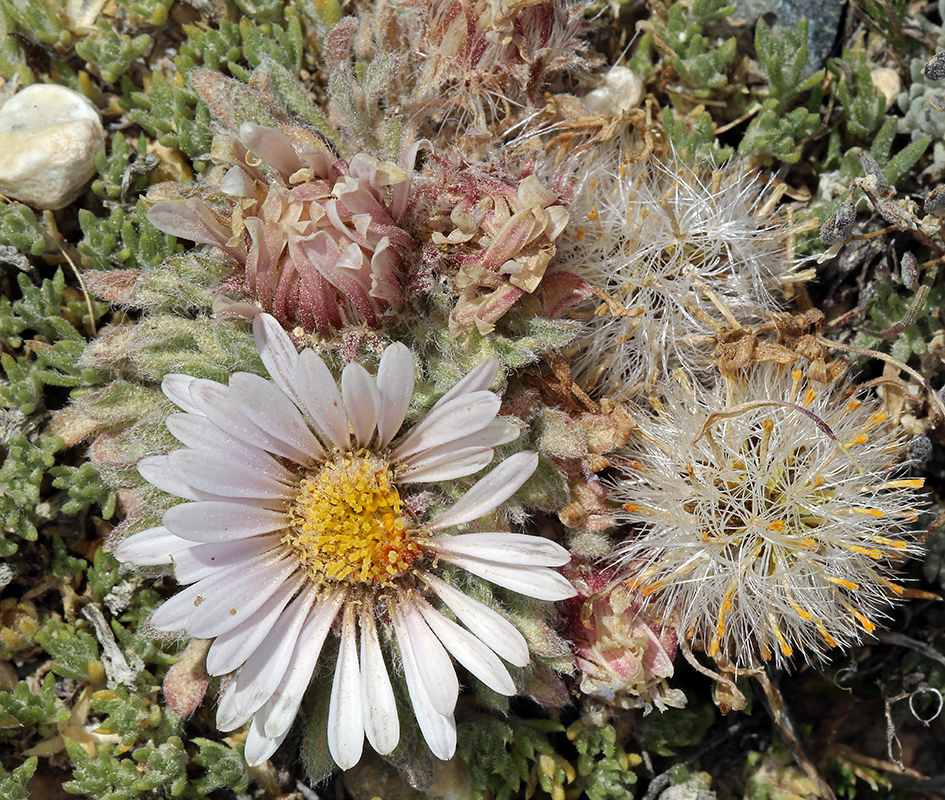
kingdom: Plantae
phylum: Tracheophyta
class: Magnoliopsida
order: Asterales
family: Asteraceae
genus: Townsendia
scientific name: Townsendia condensata
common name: Alpine townsend daisy
